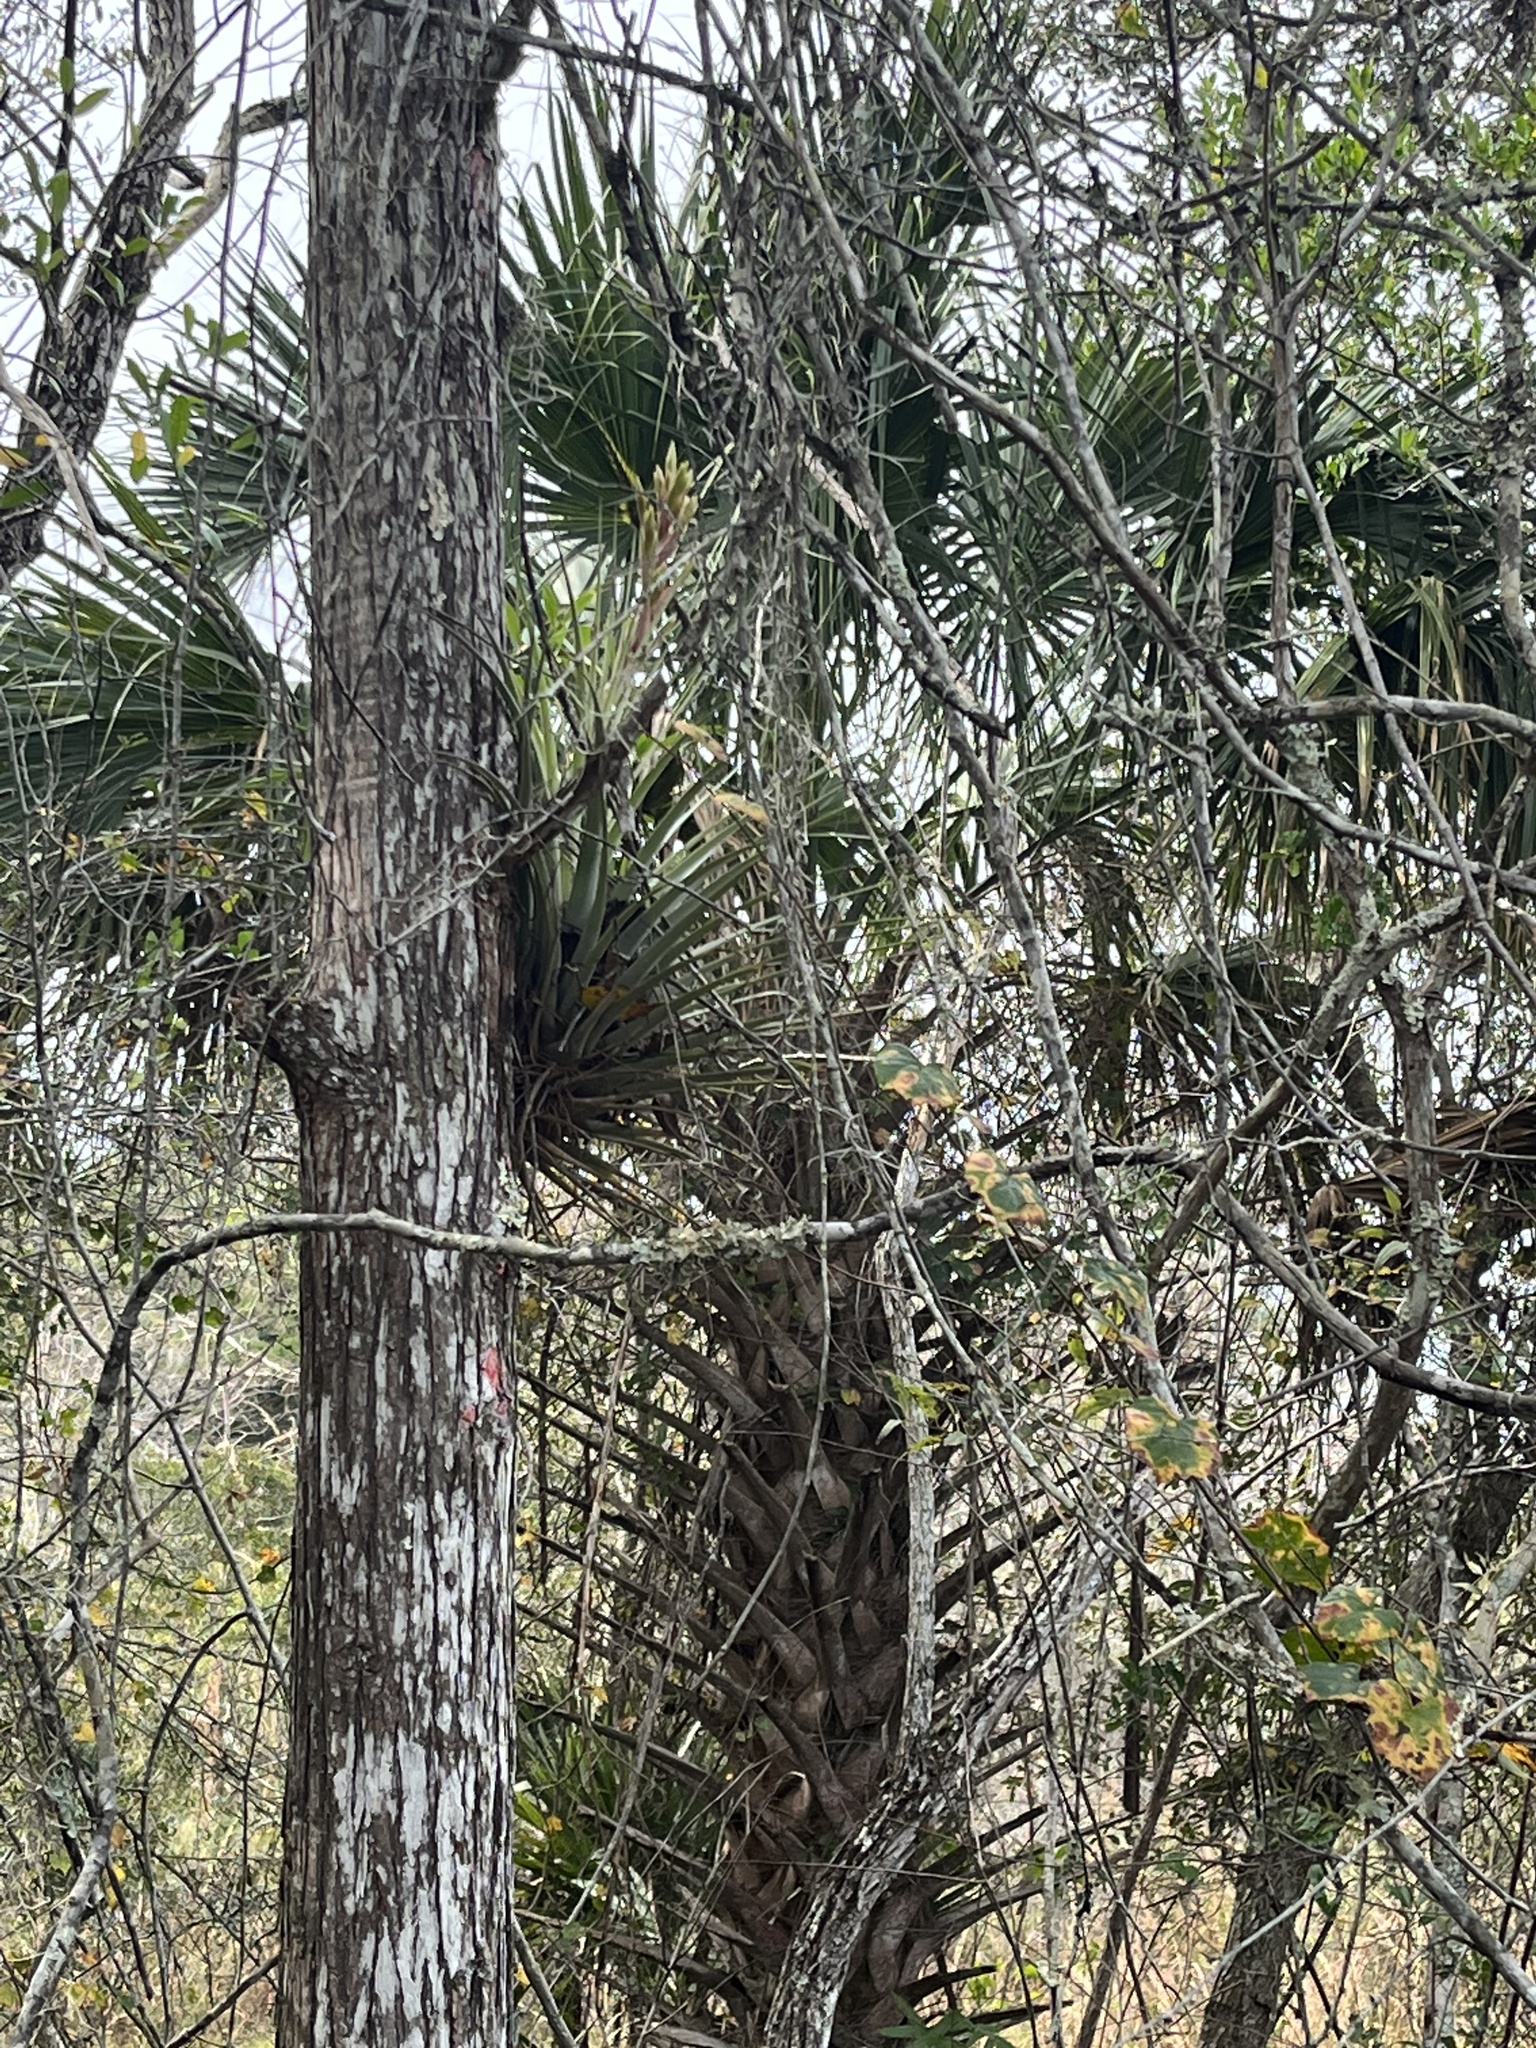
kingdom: Plantae
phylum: Tracheophyta
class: Liliopsida
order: Poales
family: Bromeliaceae
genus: Tillandsia
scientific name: Tillandsia fasciculata
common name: Giant airplant
